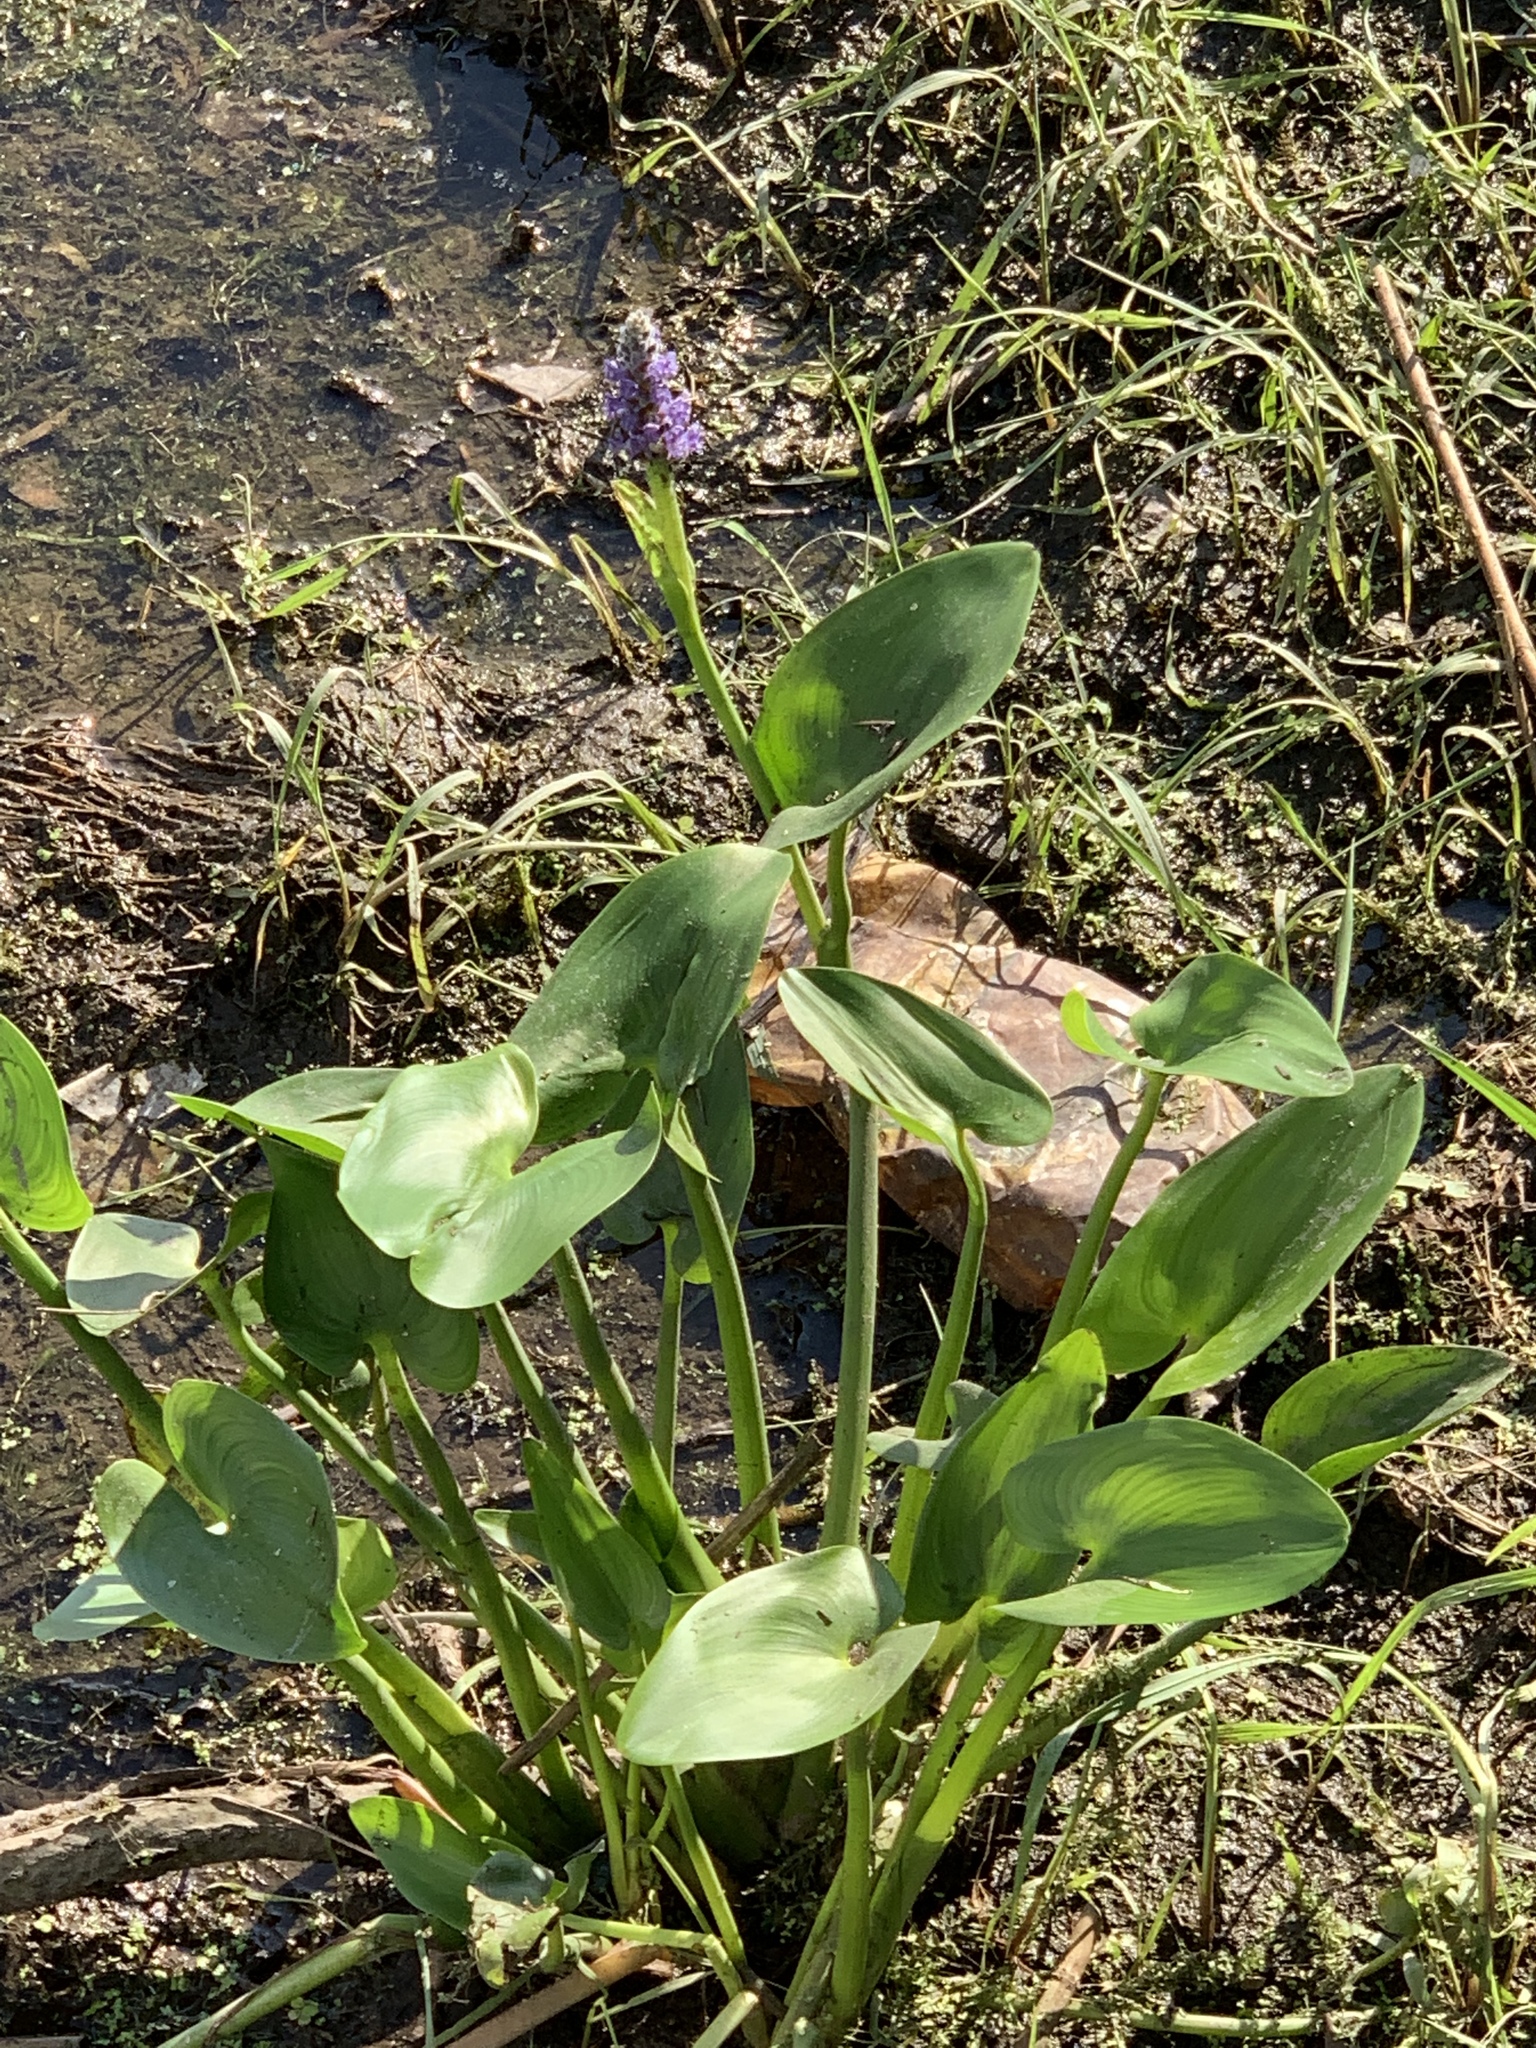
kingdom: Plantae
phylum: Tracheophyta
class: Liliopsida
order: Commelinales
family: Pontederiaceae
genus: Pontederia
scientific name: Pontederia cordata
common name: Pickerelweed
